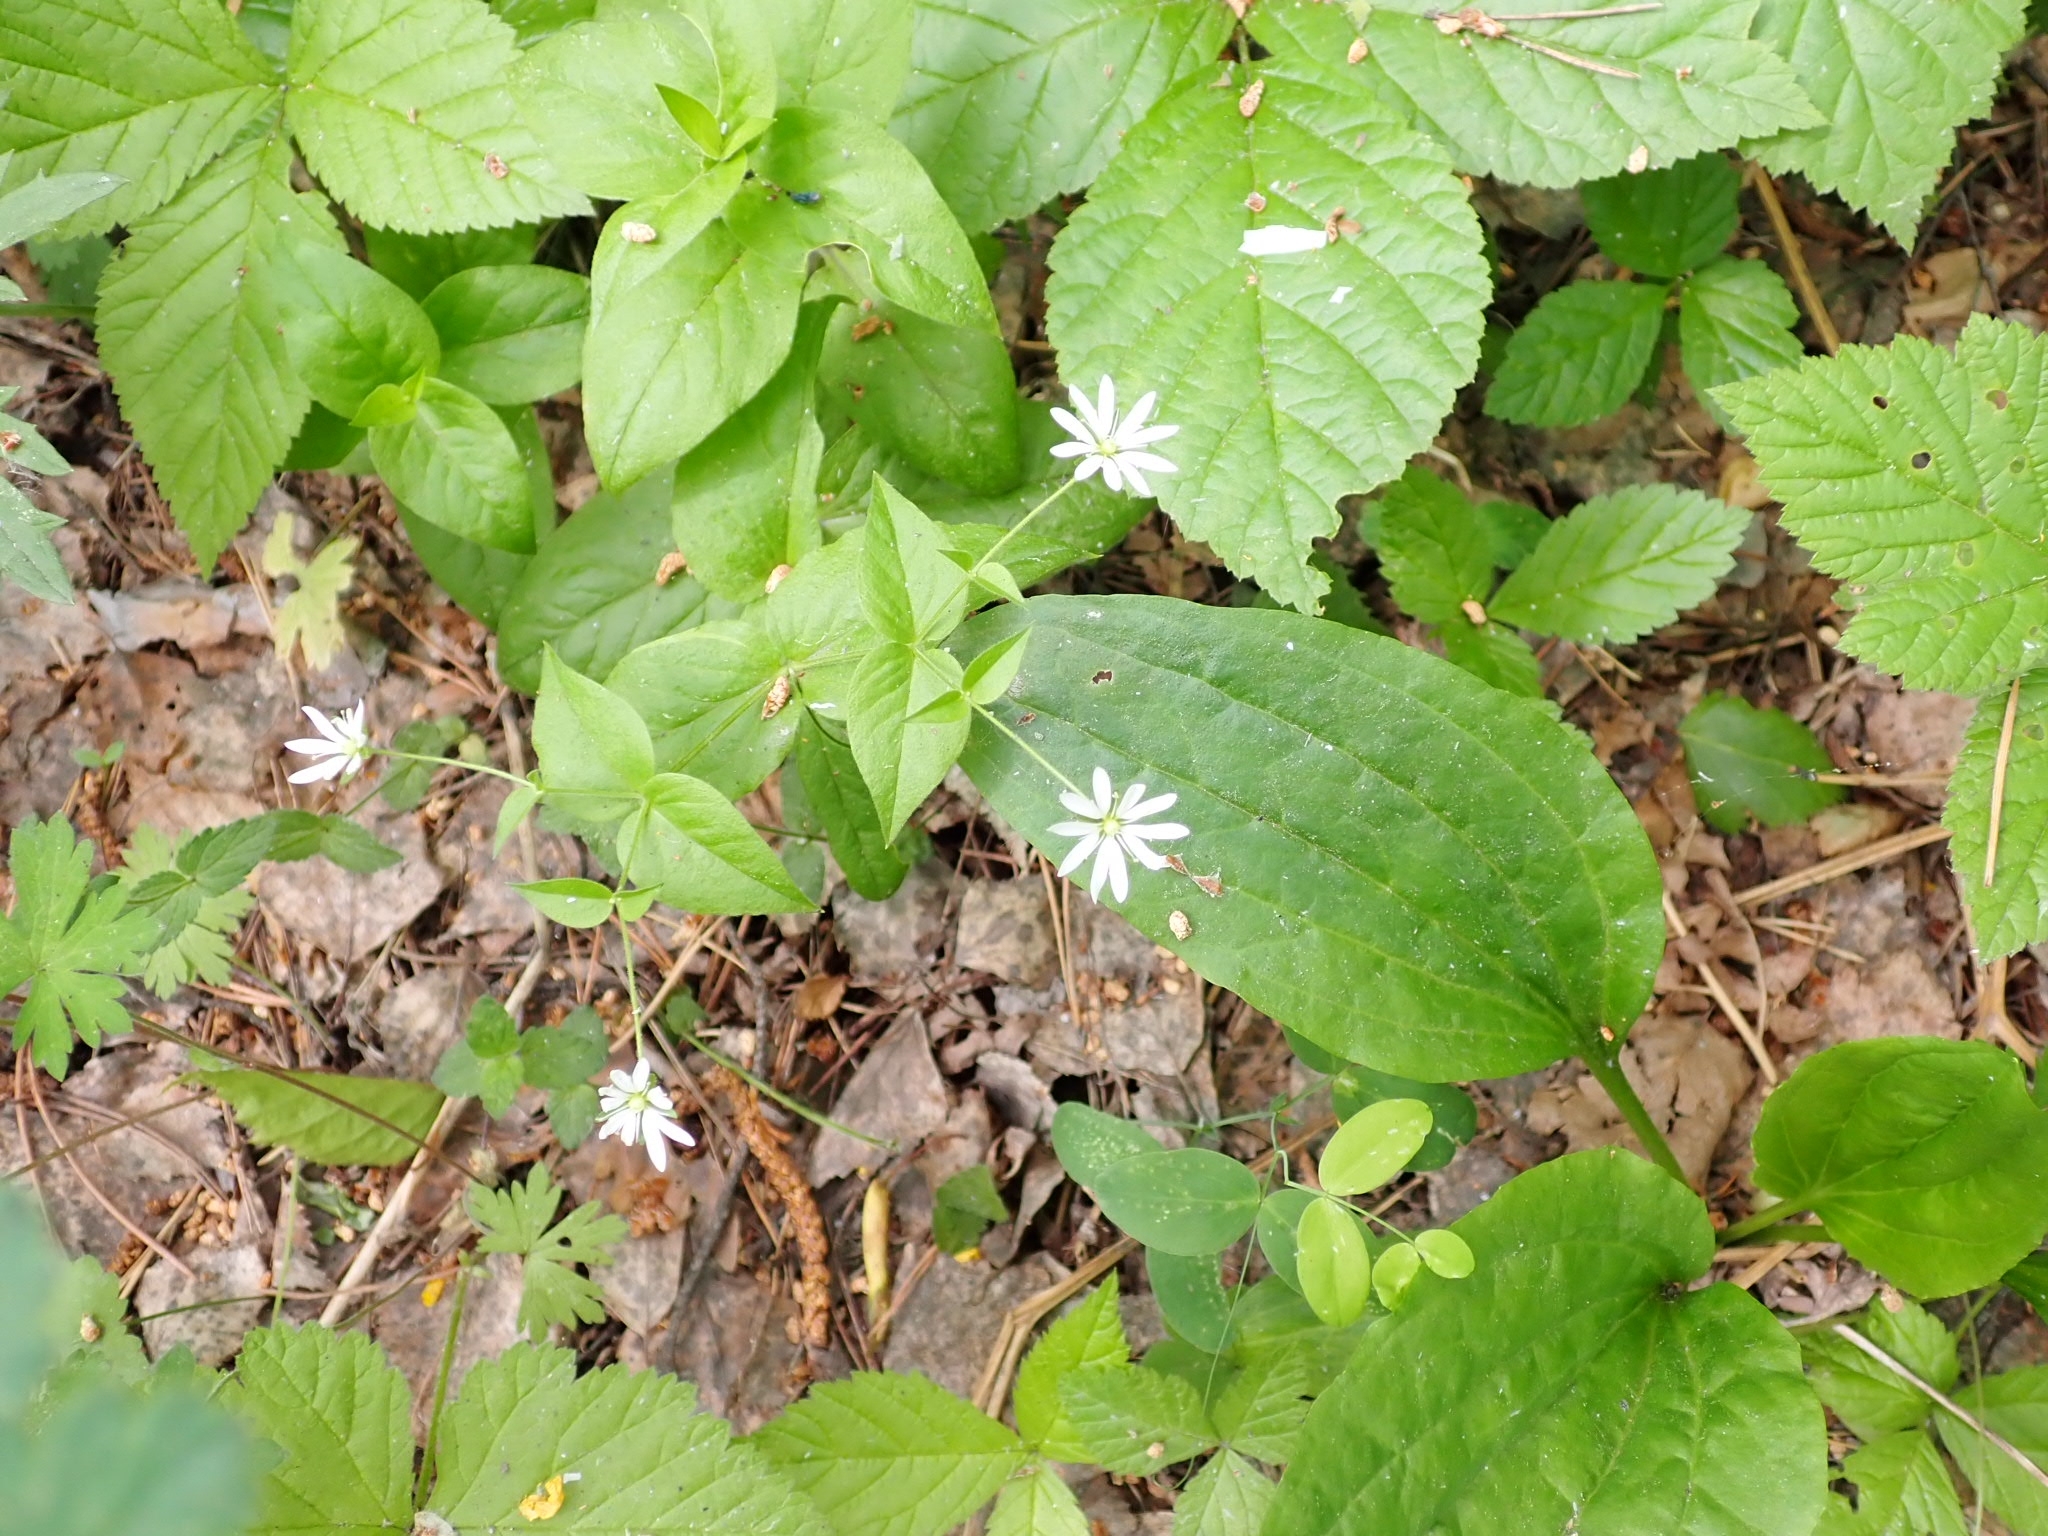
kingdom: Plantae
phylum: Tracheophyta
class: Magnoliopsida
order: Caryophyllales
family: Caryophyllaceae
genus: Stellaria
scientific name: Stellaria bungeana
